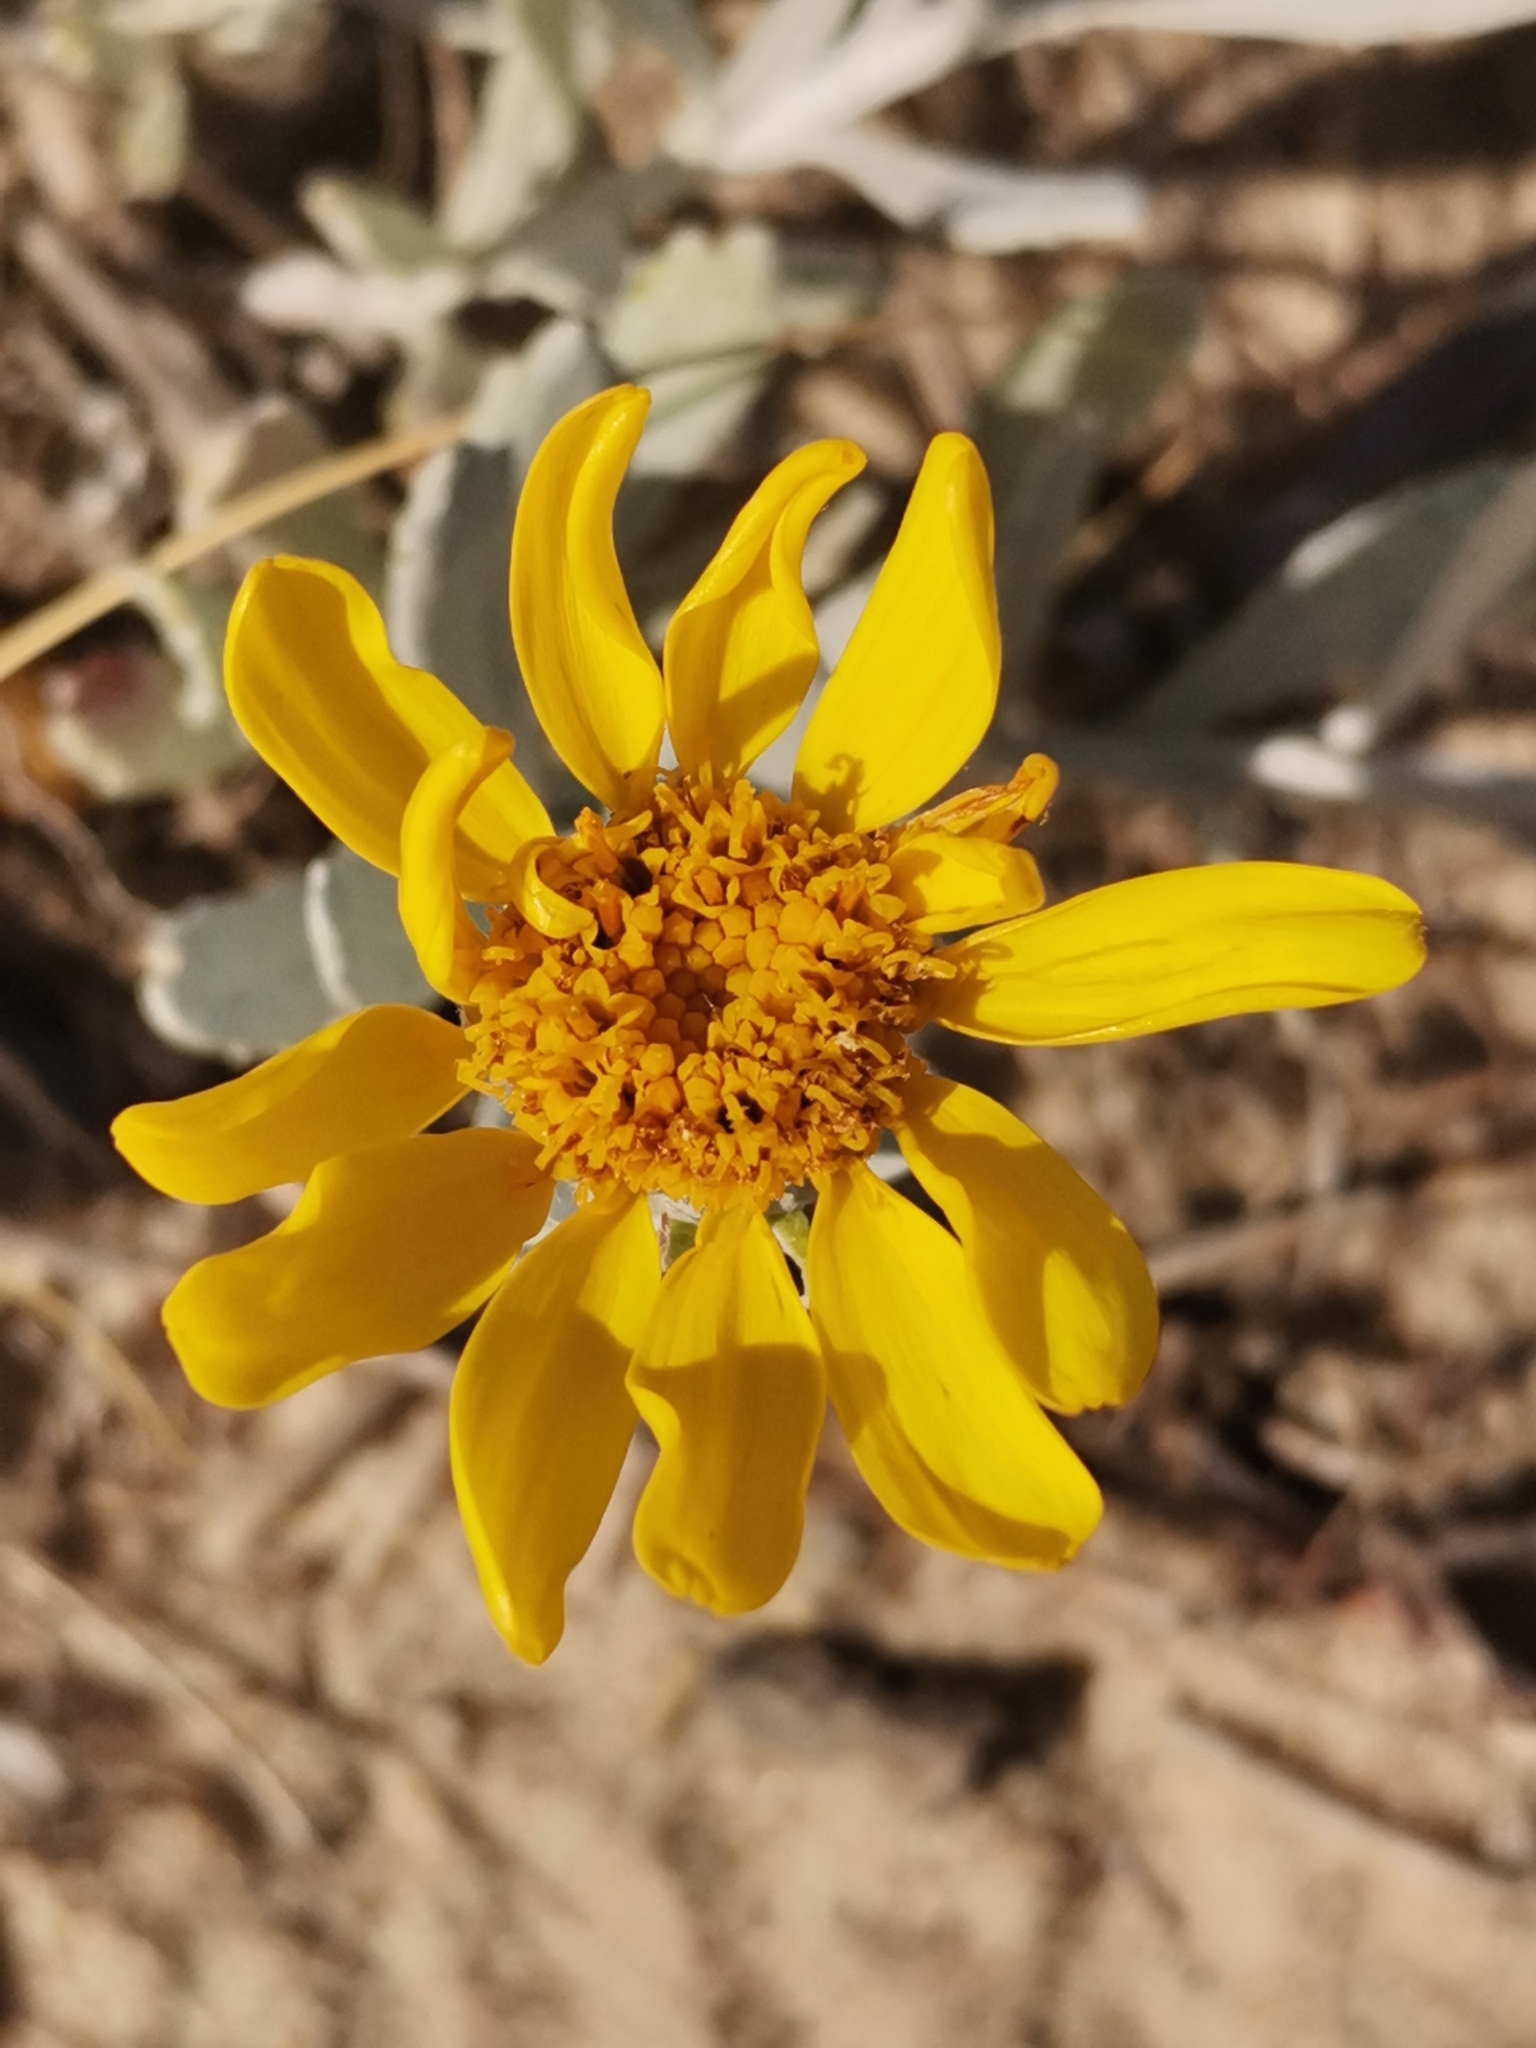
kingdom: Plantae
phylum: Tracheophyta
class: Magnoliopsida
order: Asterales
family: Asteraceae
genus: Senecio
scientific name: Senecio crassiflorus
